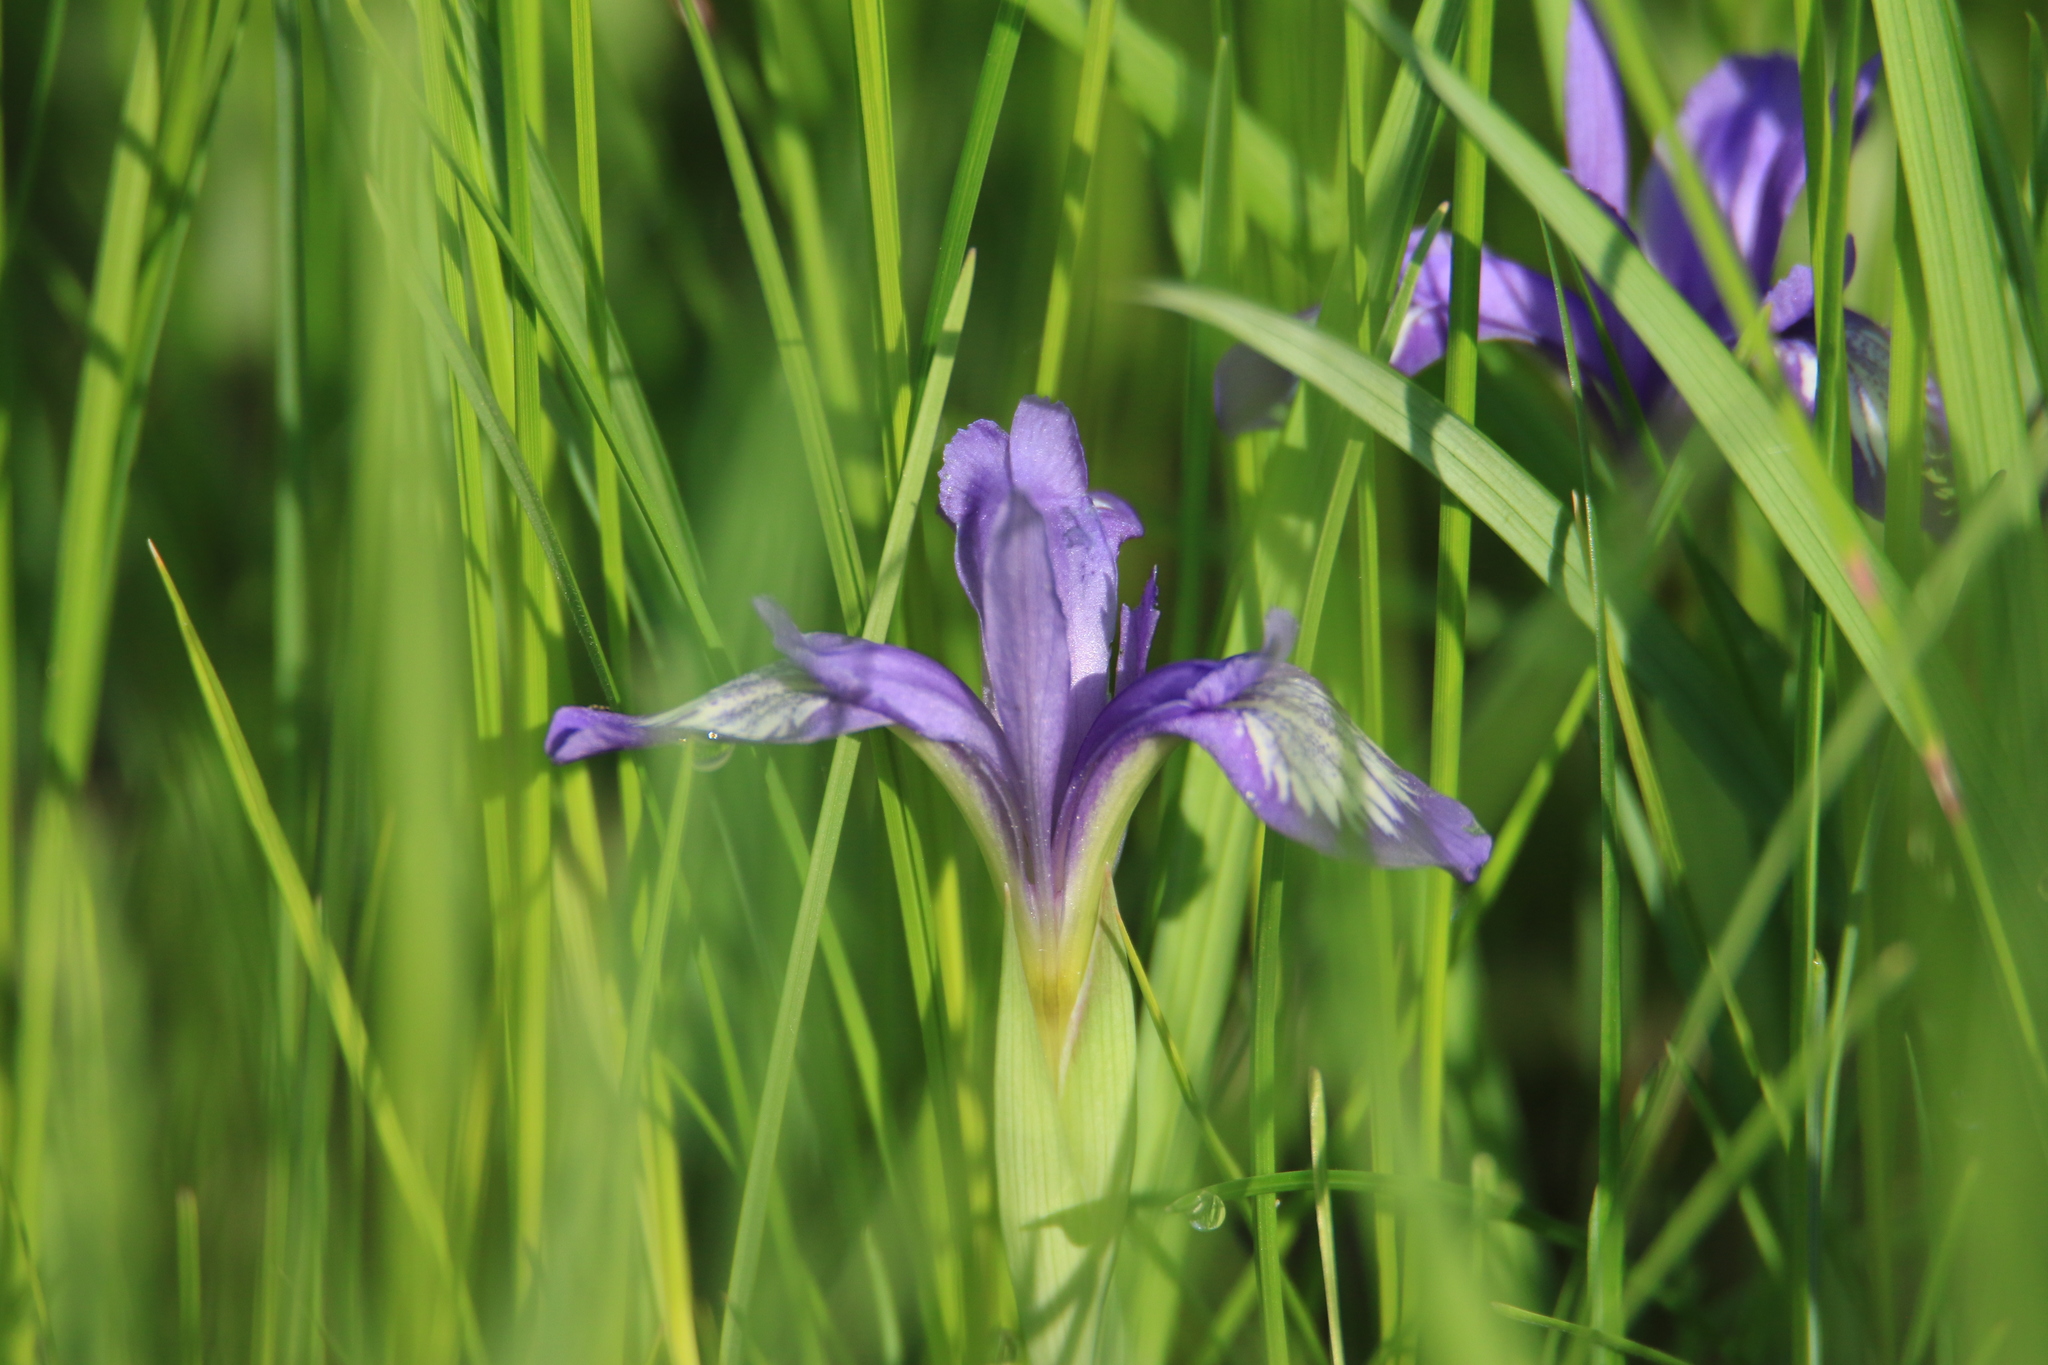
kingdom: Plantae
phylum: Tracheophyta
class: Liliopsida
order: Asparagales
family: Iridaceae
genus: Iris
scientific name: Iris ruthenica
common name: Purple-bract iris
